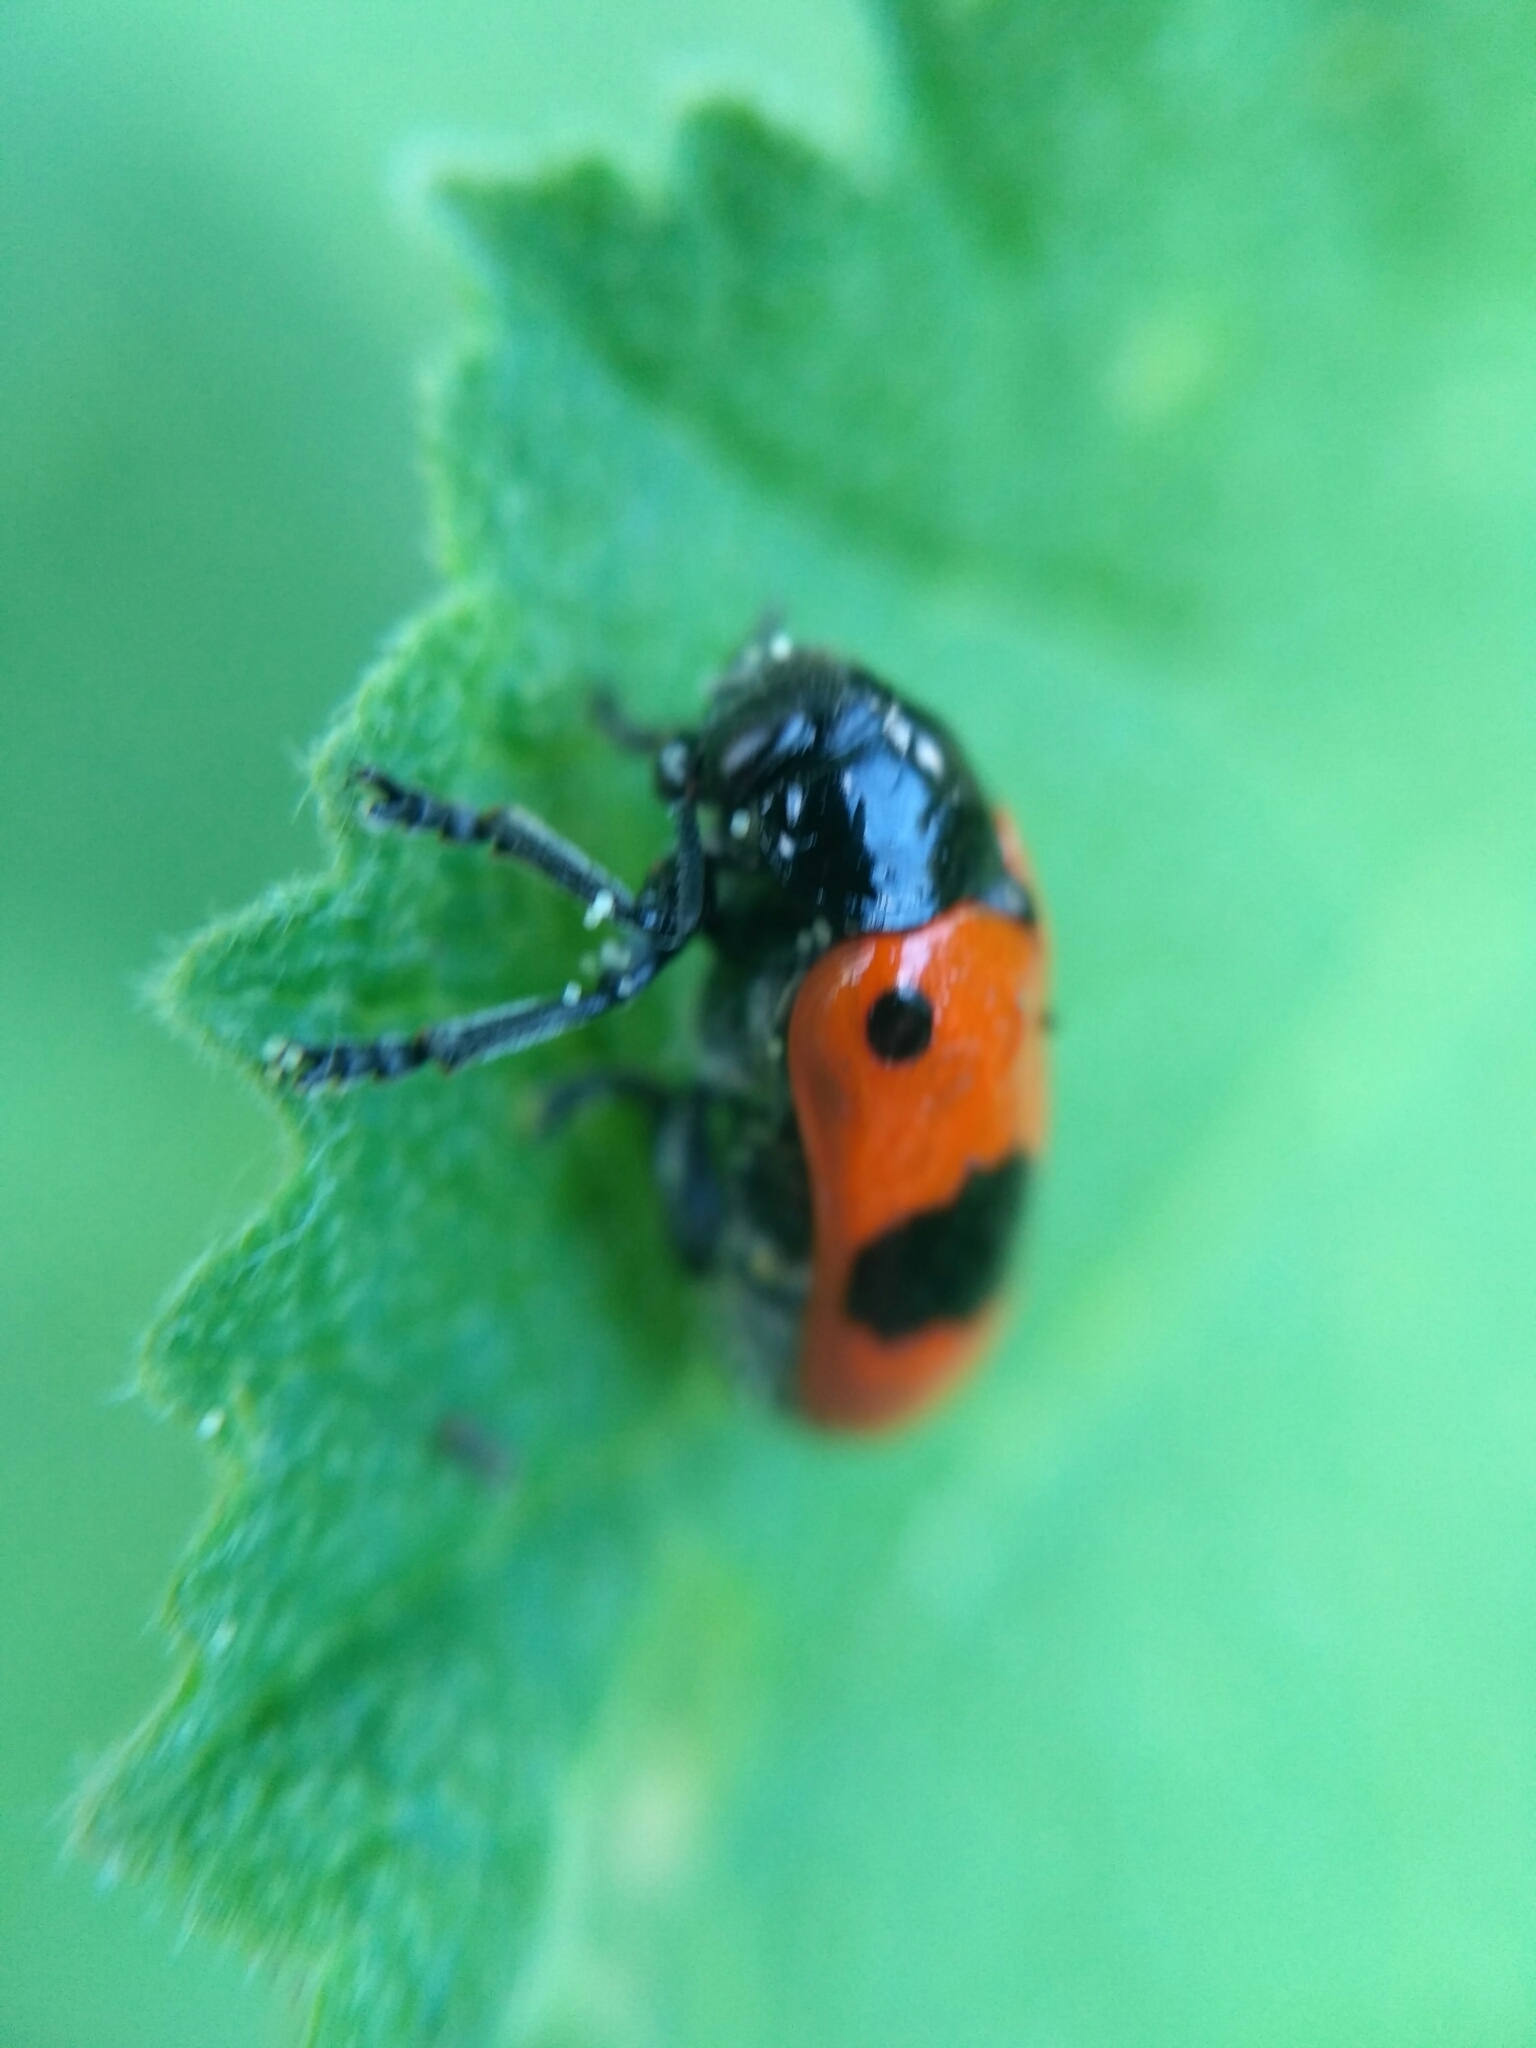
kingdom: Animalia
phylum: Arthropoda
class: Insecta
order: Coleoptera
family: Chrysomelidae
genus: Clytra
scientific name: Clytra laeviuscula
